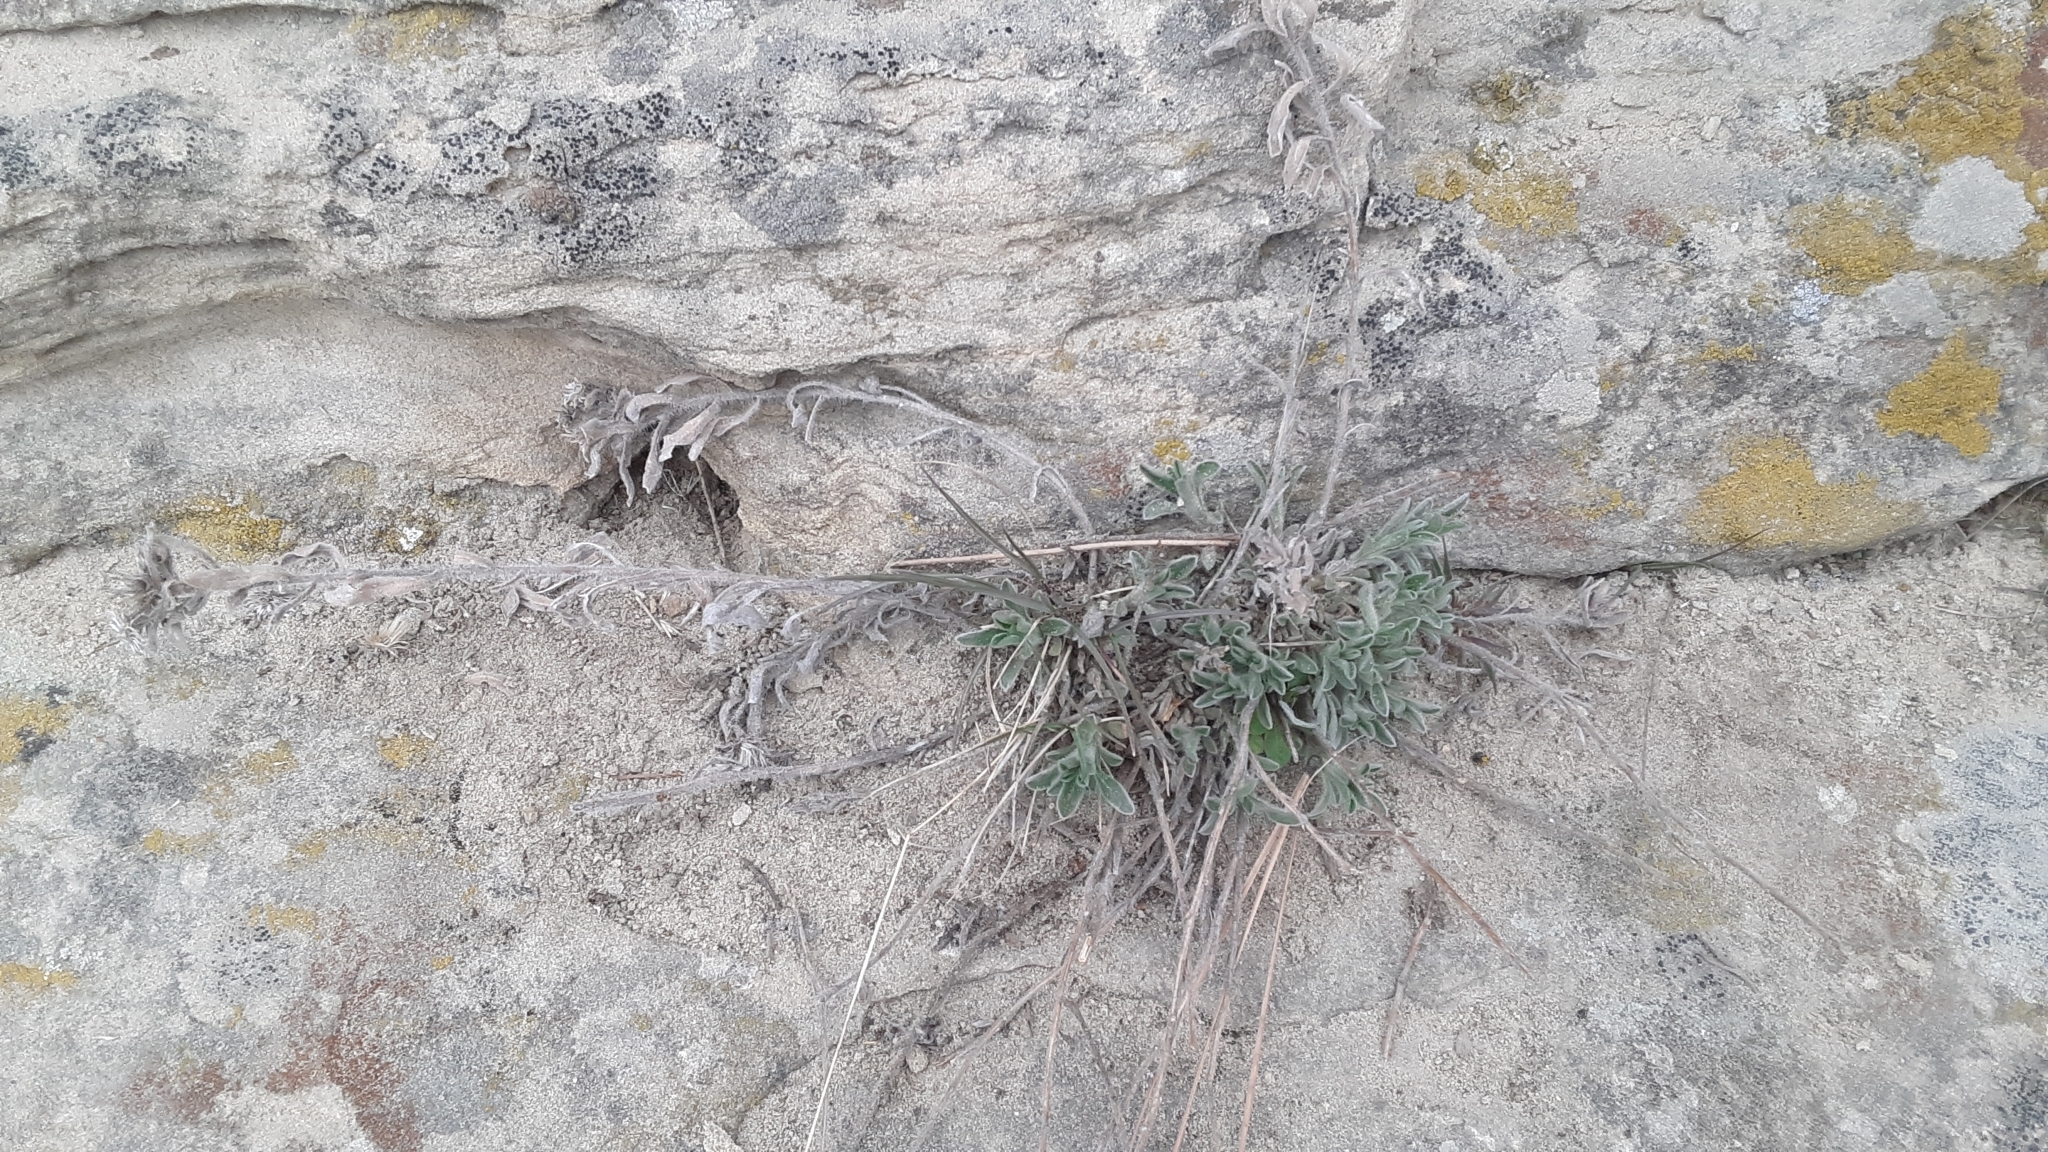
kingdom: Plantae
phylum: Tracheophyta
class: Magnoliopsida
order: Asterales
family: Asteraceae
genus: Heterotheca
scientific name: Heterotheca villosa
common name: Hairy false goldenaster
